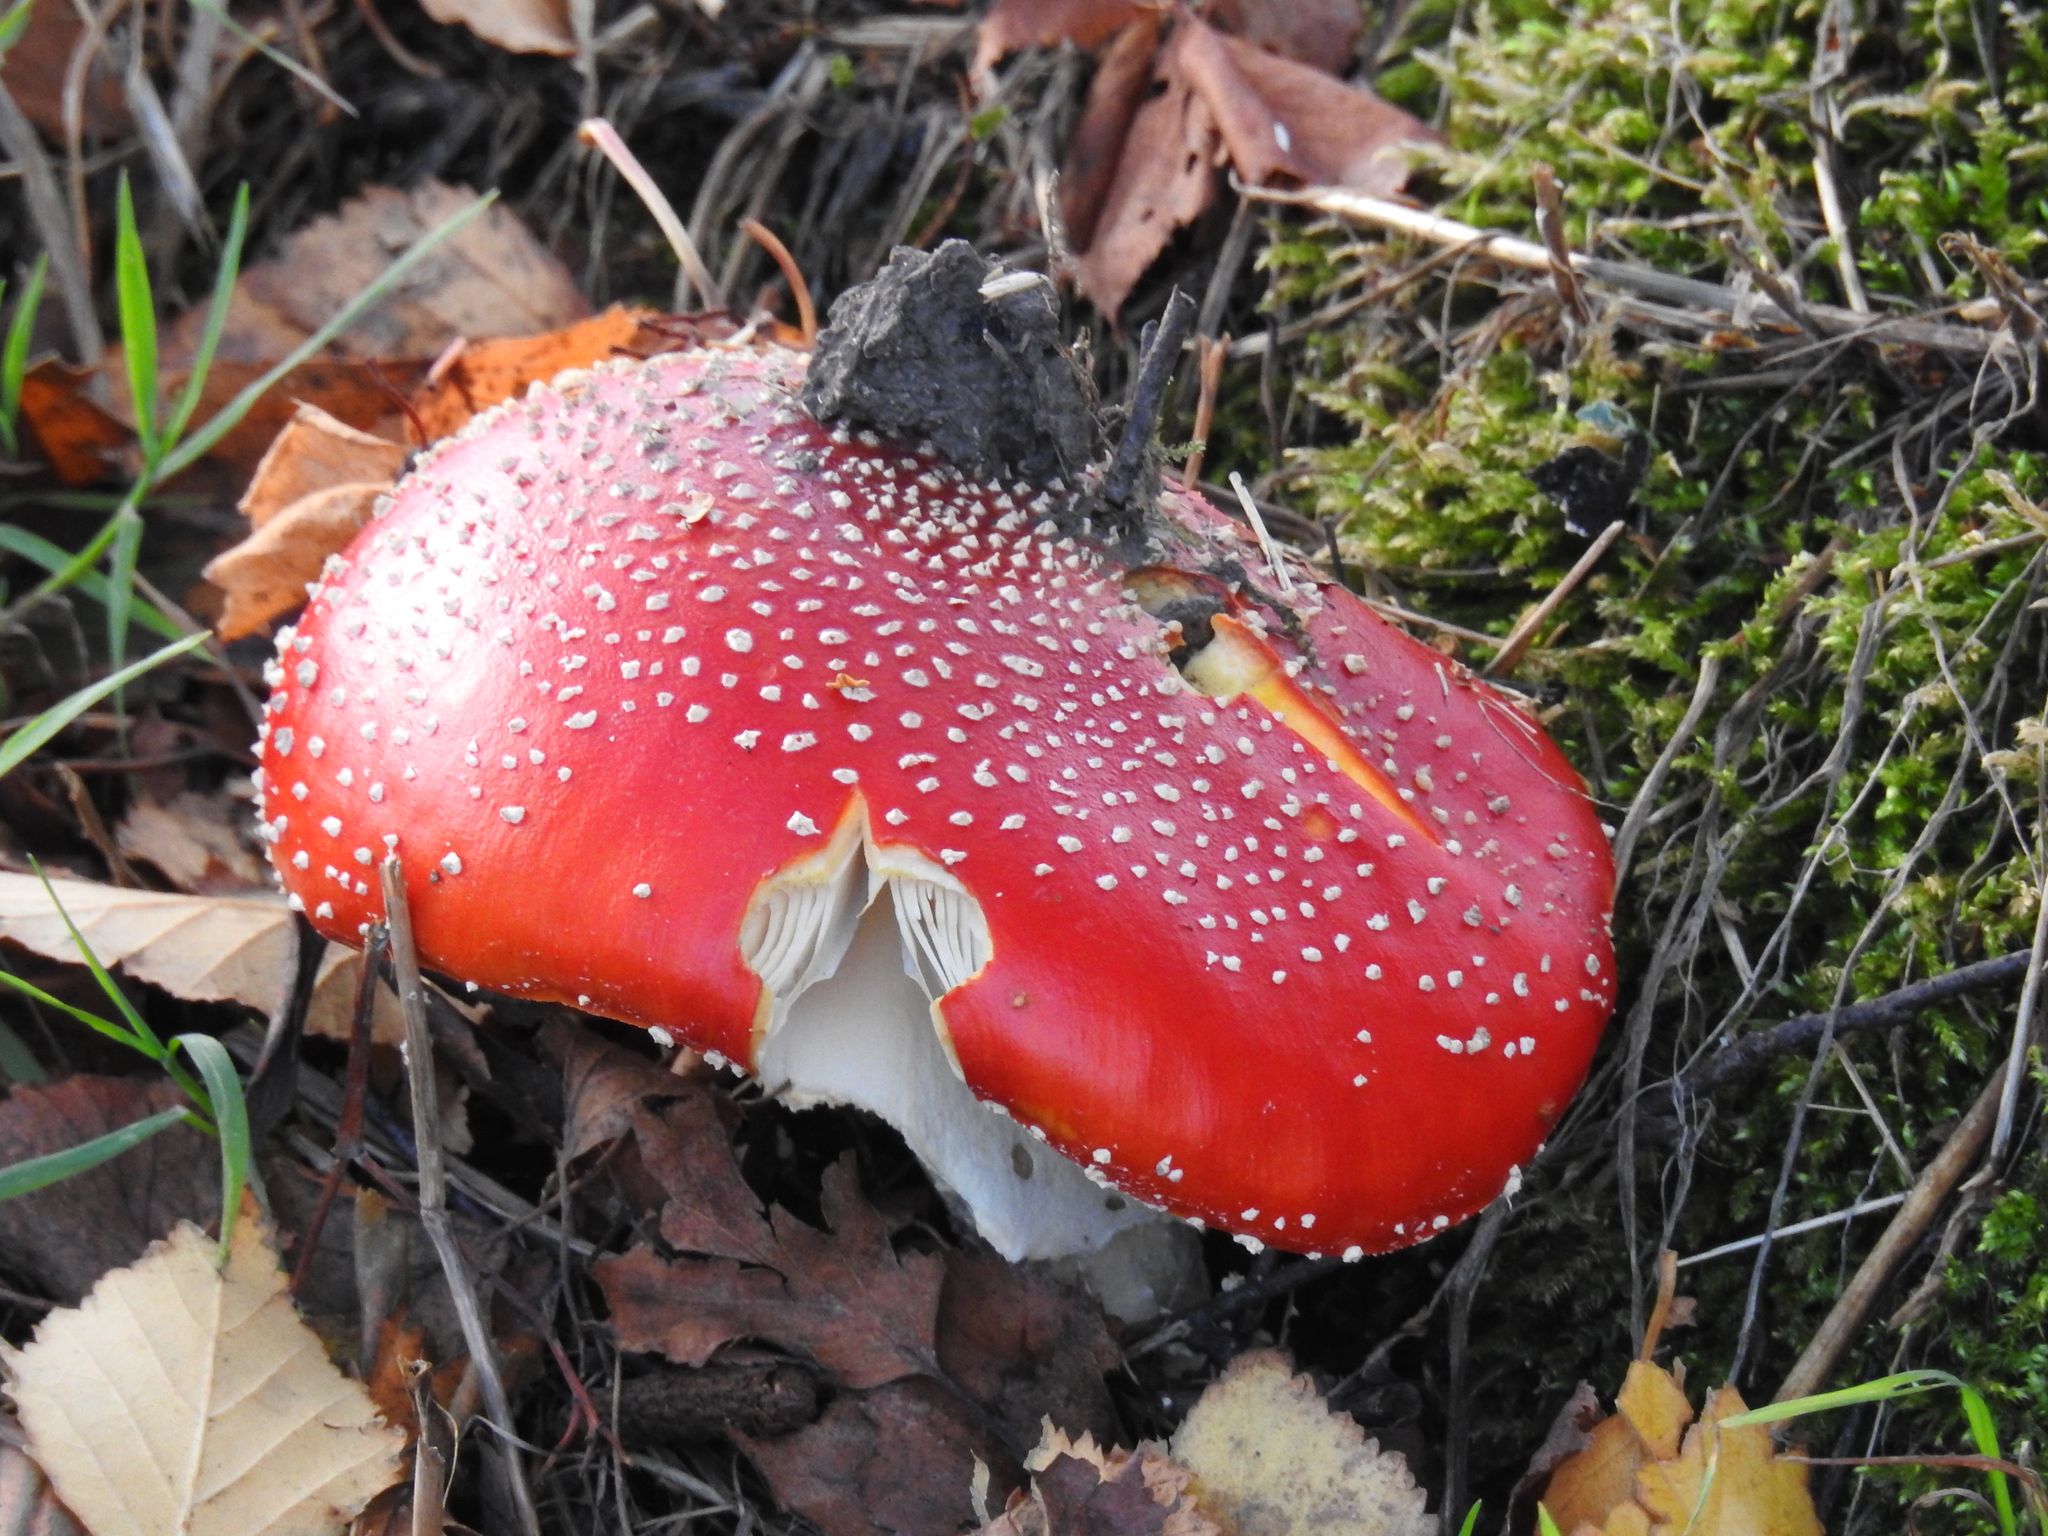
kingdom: Fungi
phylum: Basidiomycota
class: Agaricomycetes
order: Agaricales
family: Amanitaceae
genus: Amanita
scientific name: Amanita muscaria
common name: Fly agaric
